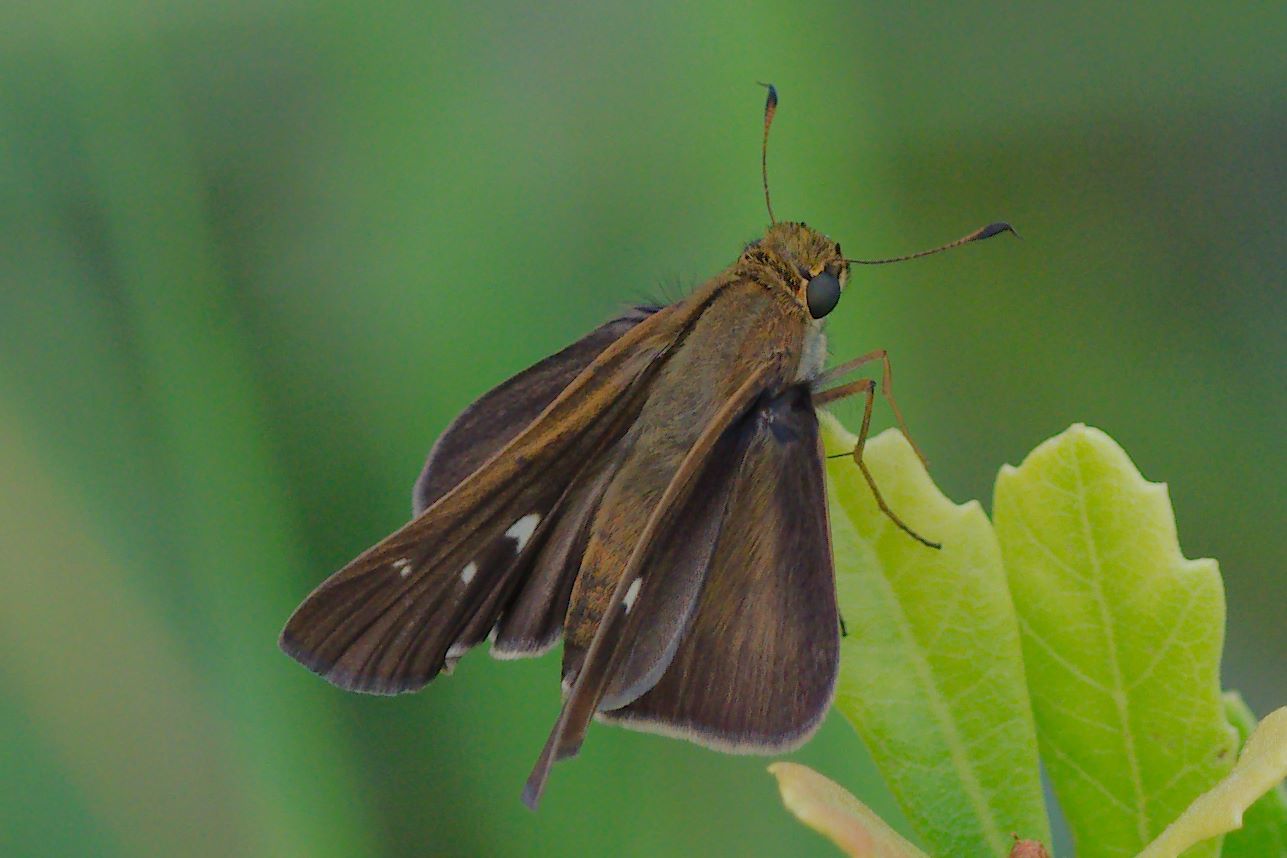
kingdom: Animalia
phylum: Arthropoda
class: Insecta
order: Lepidoptera
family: Hesperiidae
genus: Panoquina
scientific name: Panoquina ocola
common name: Ocola skipper
